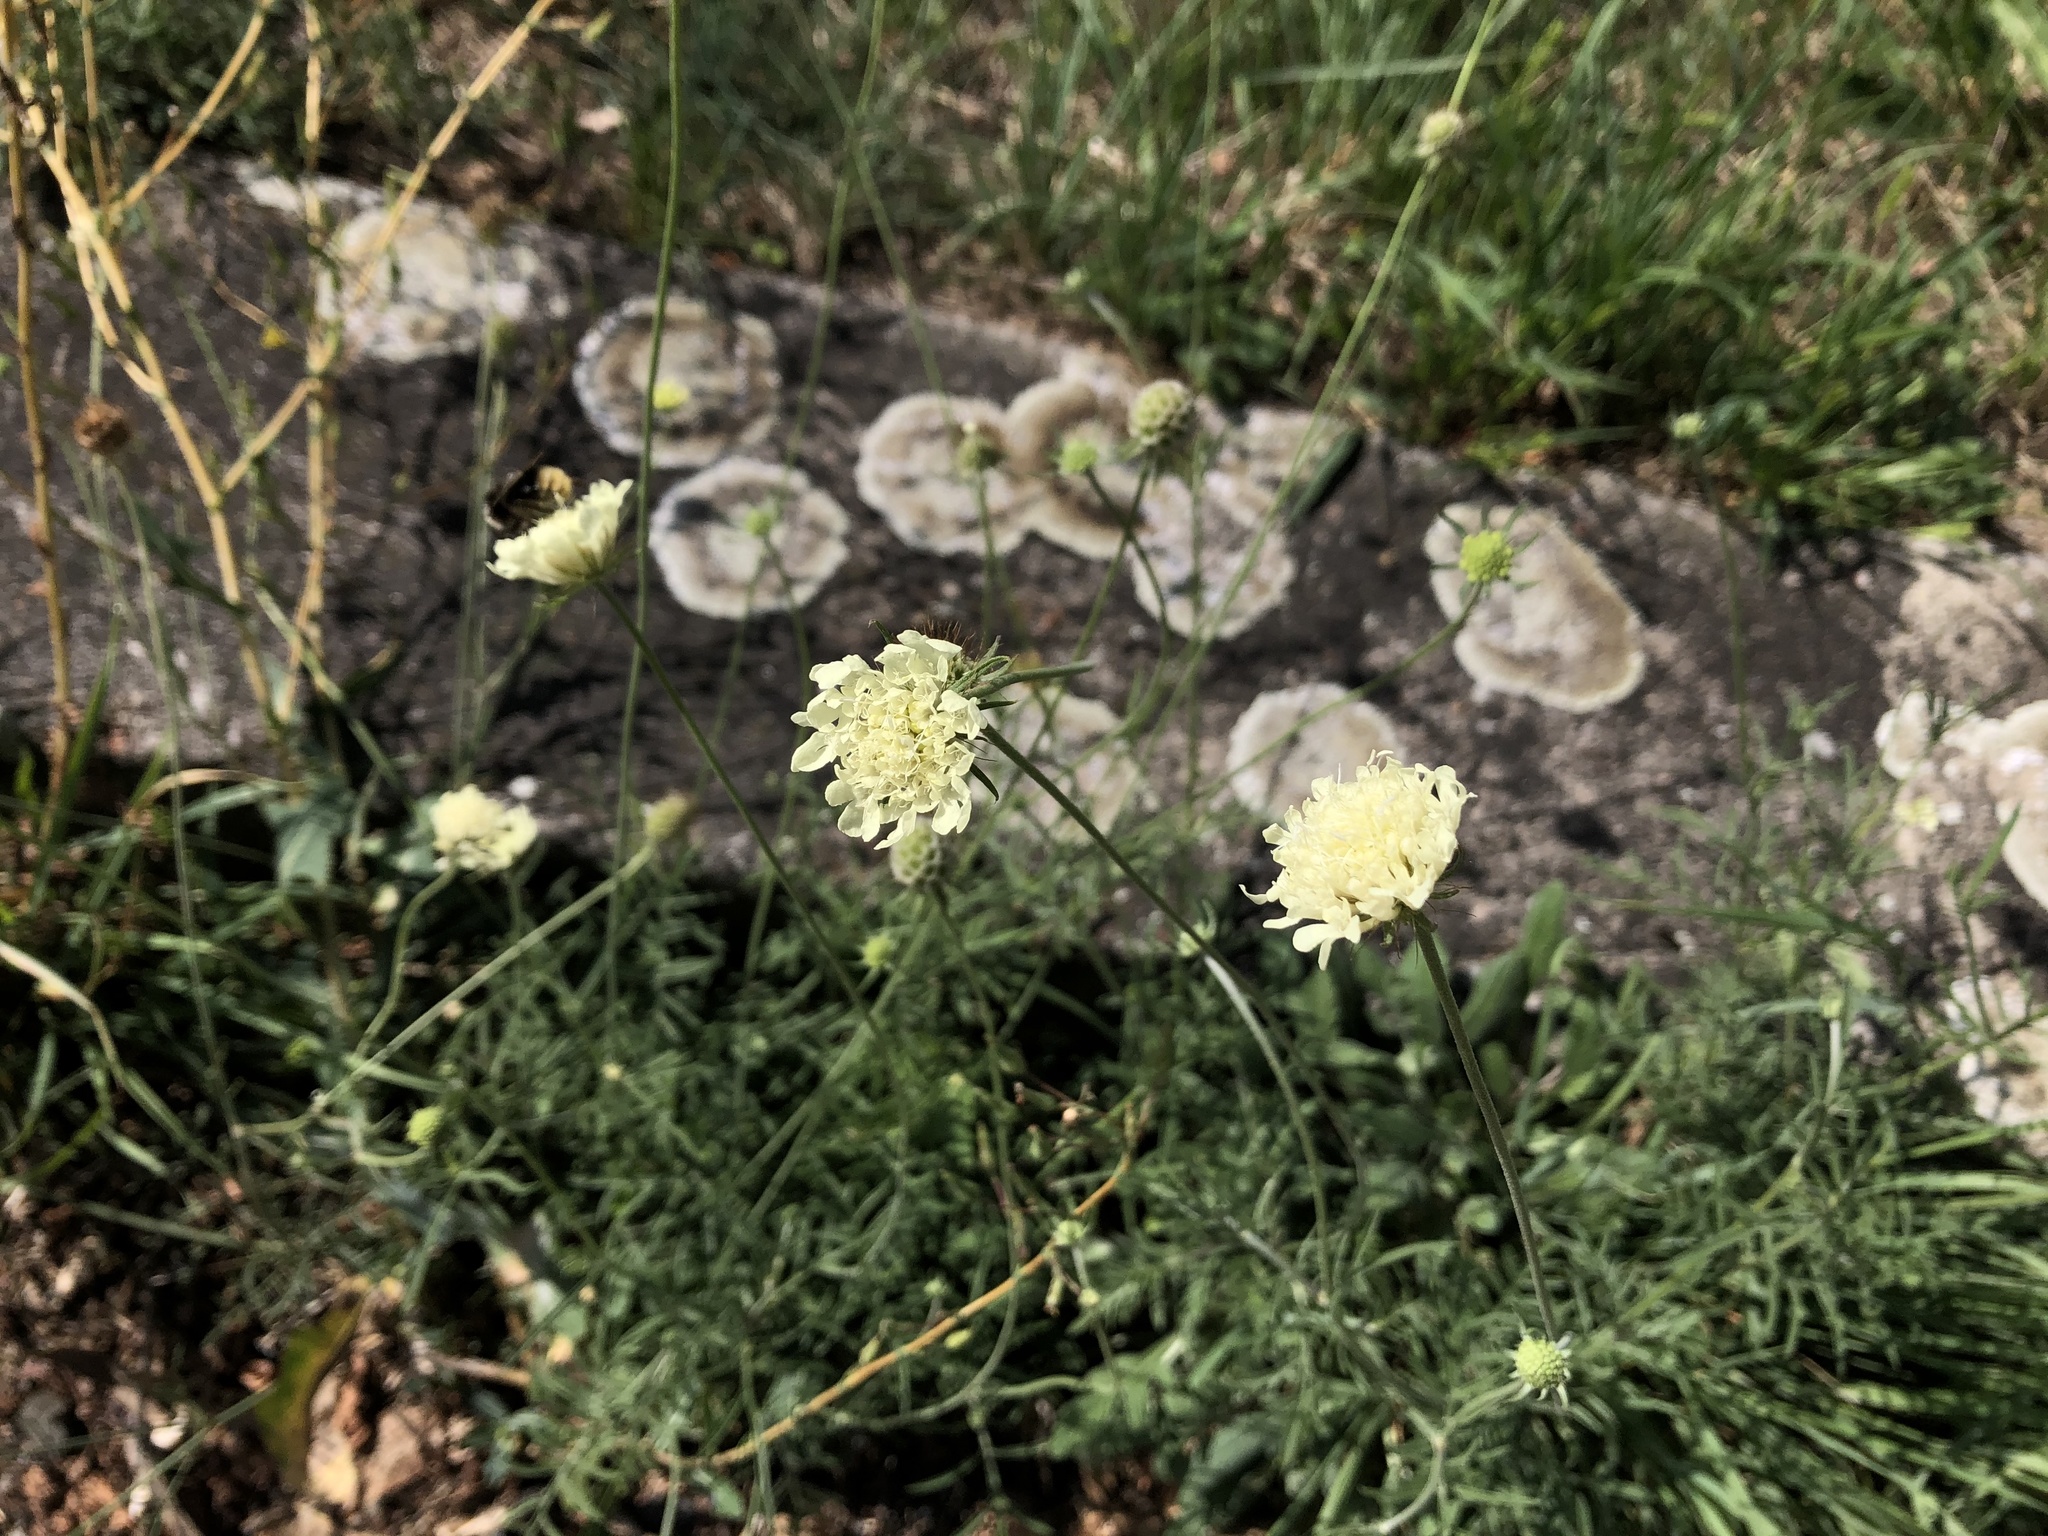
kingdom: Plantae
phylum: Tracheophyta
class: Magnoliopsida
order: Dipsacales
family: Caprifoliaceae
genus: Scabiosa
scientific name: Scabiosa ochroleuca
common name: Cream pincushions
